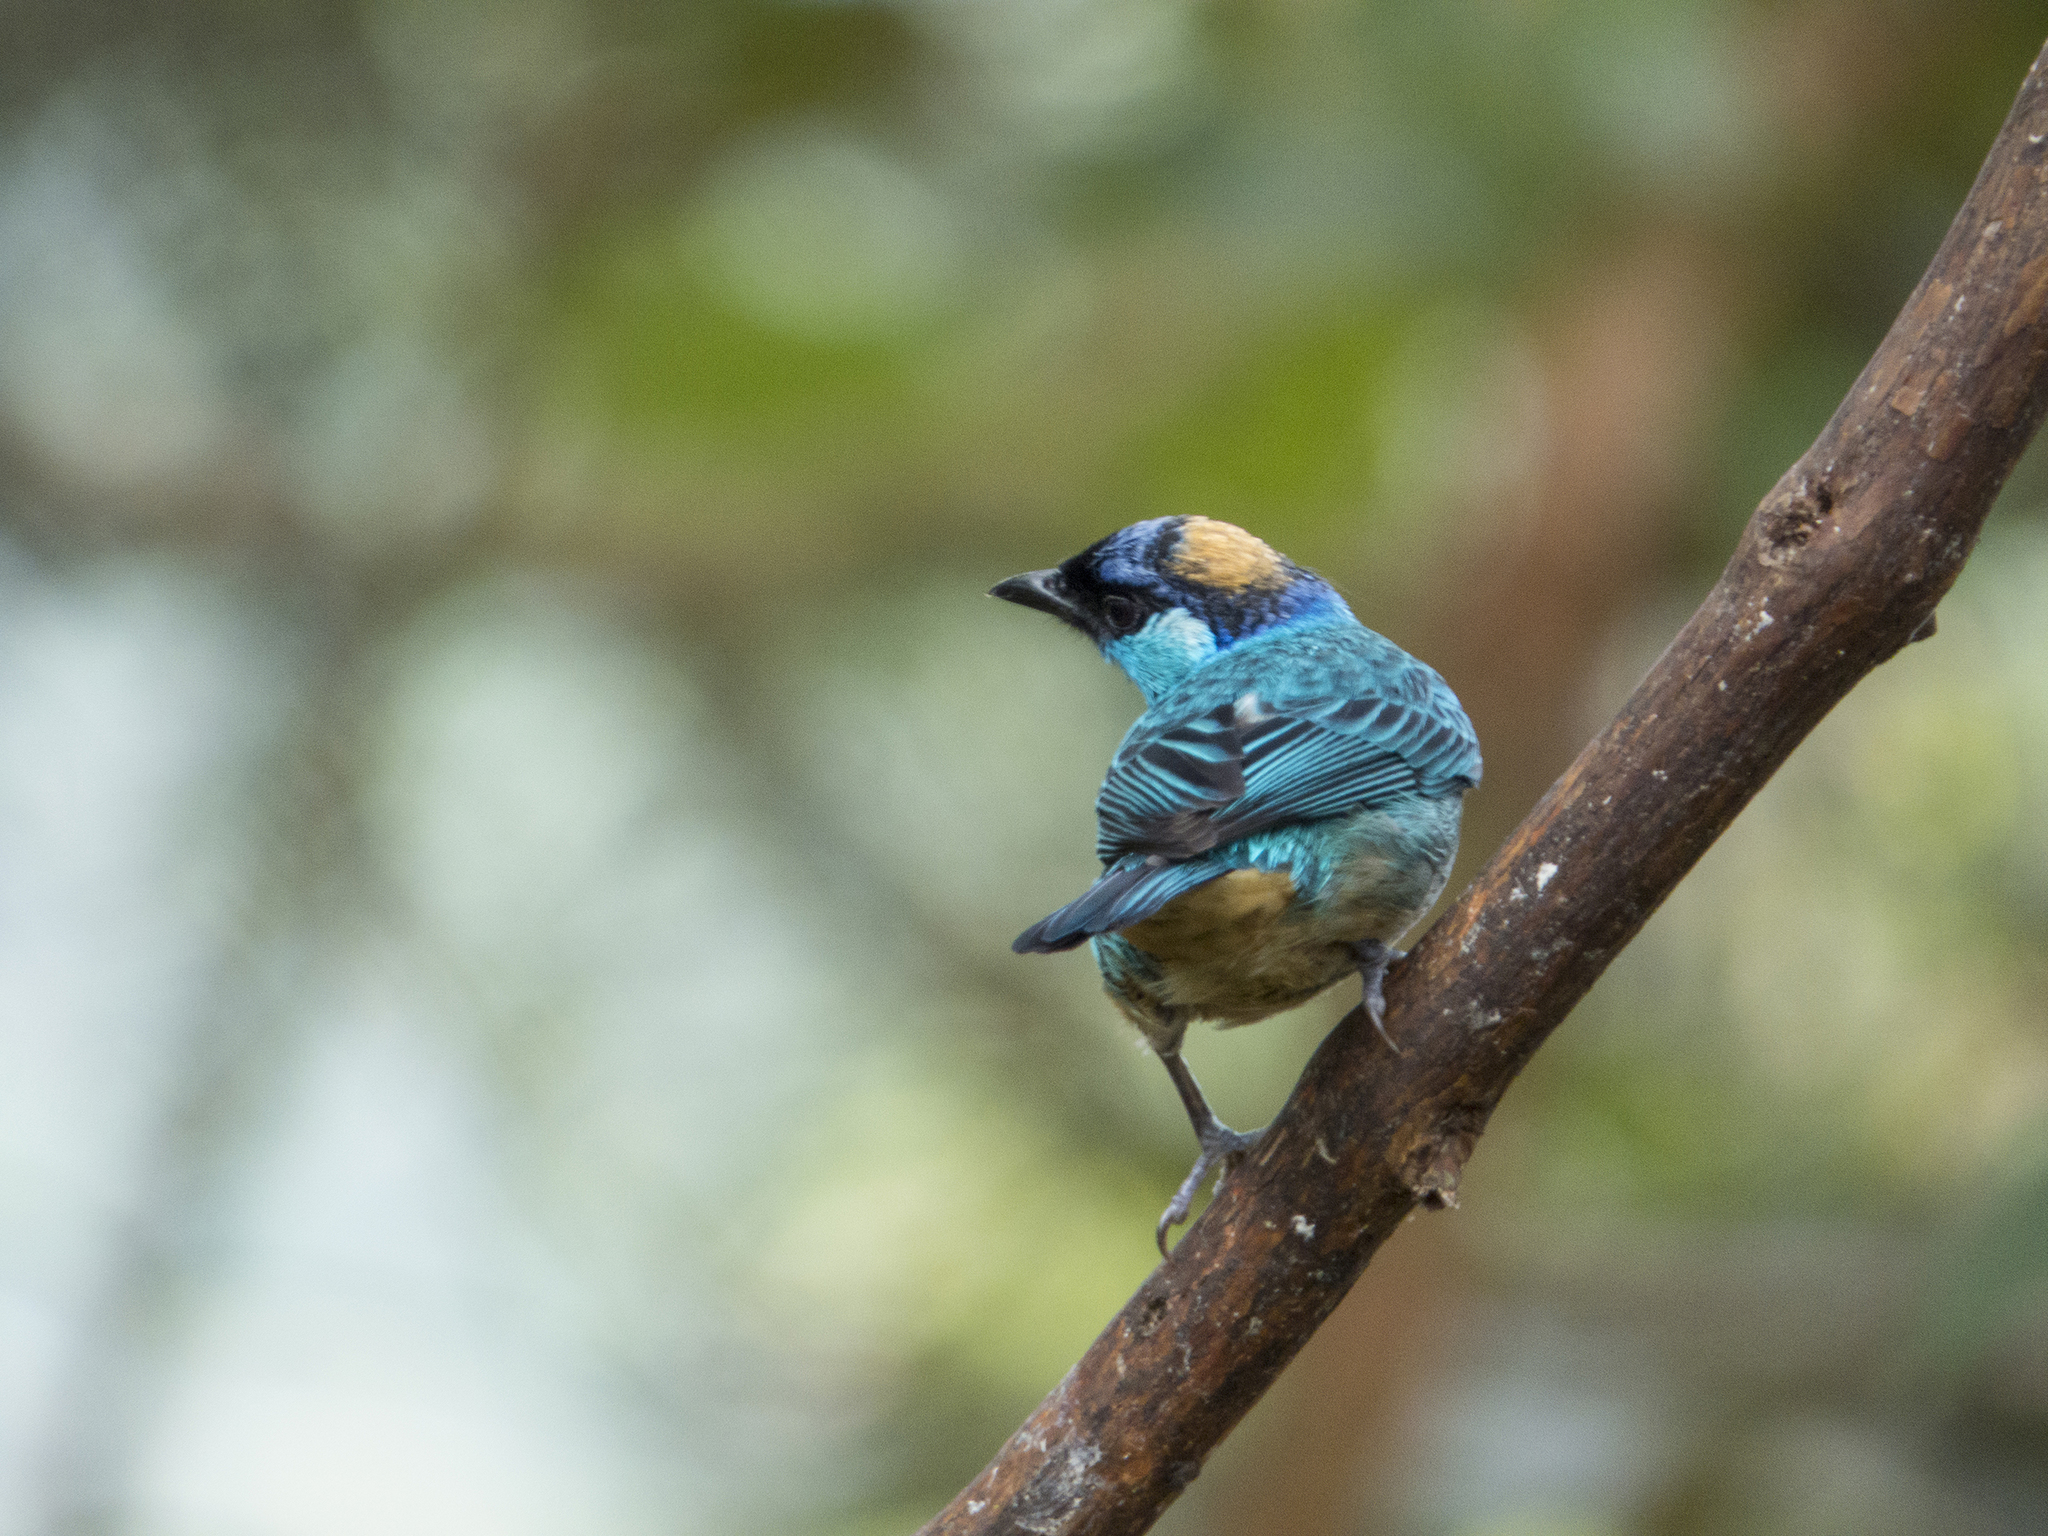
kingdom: Animalia
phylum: Chordata
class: Aves
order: Passeriformes
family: Thraupidae
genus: Chalcothraupis
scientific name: Chalcothraupis ruficervix
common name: Golden-naped tanager
